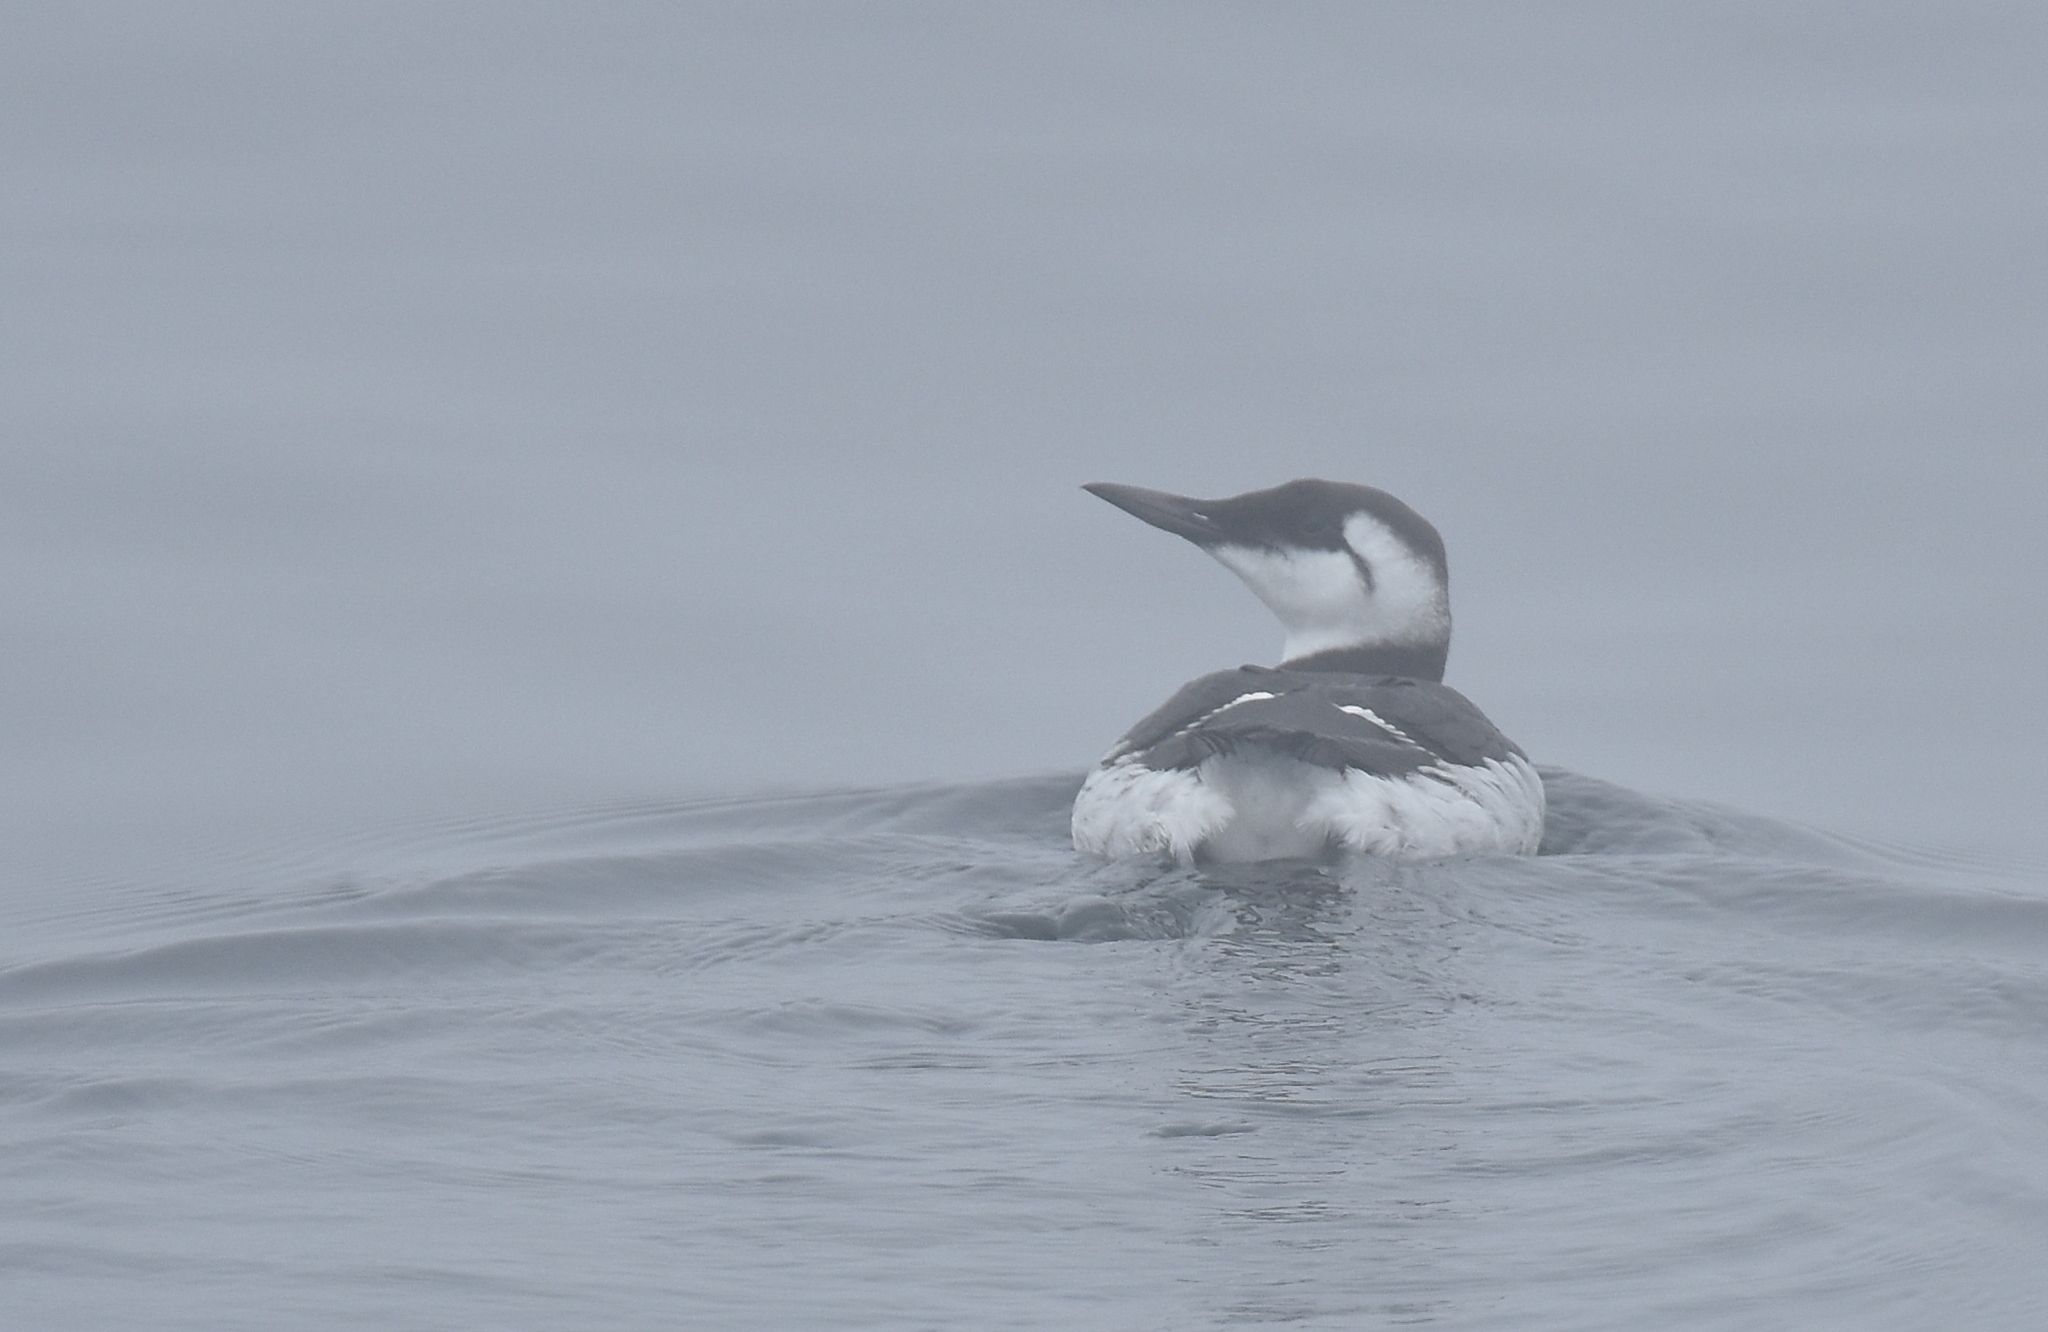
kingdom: Animalia
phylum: Chordata
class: Aves
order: Charadriiformes
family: Alcidae
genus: Uria
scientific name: Uria aalge
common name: Common murre
